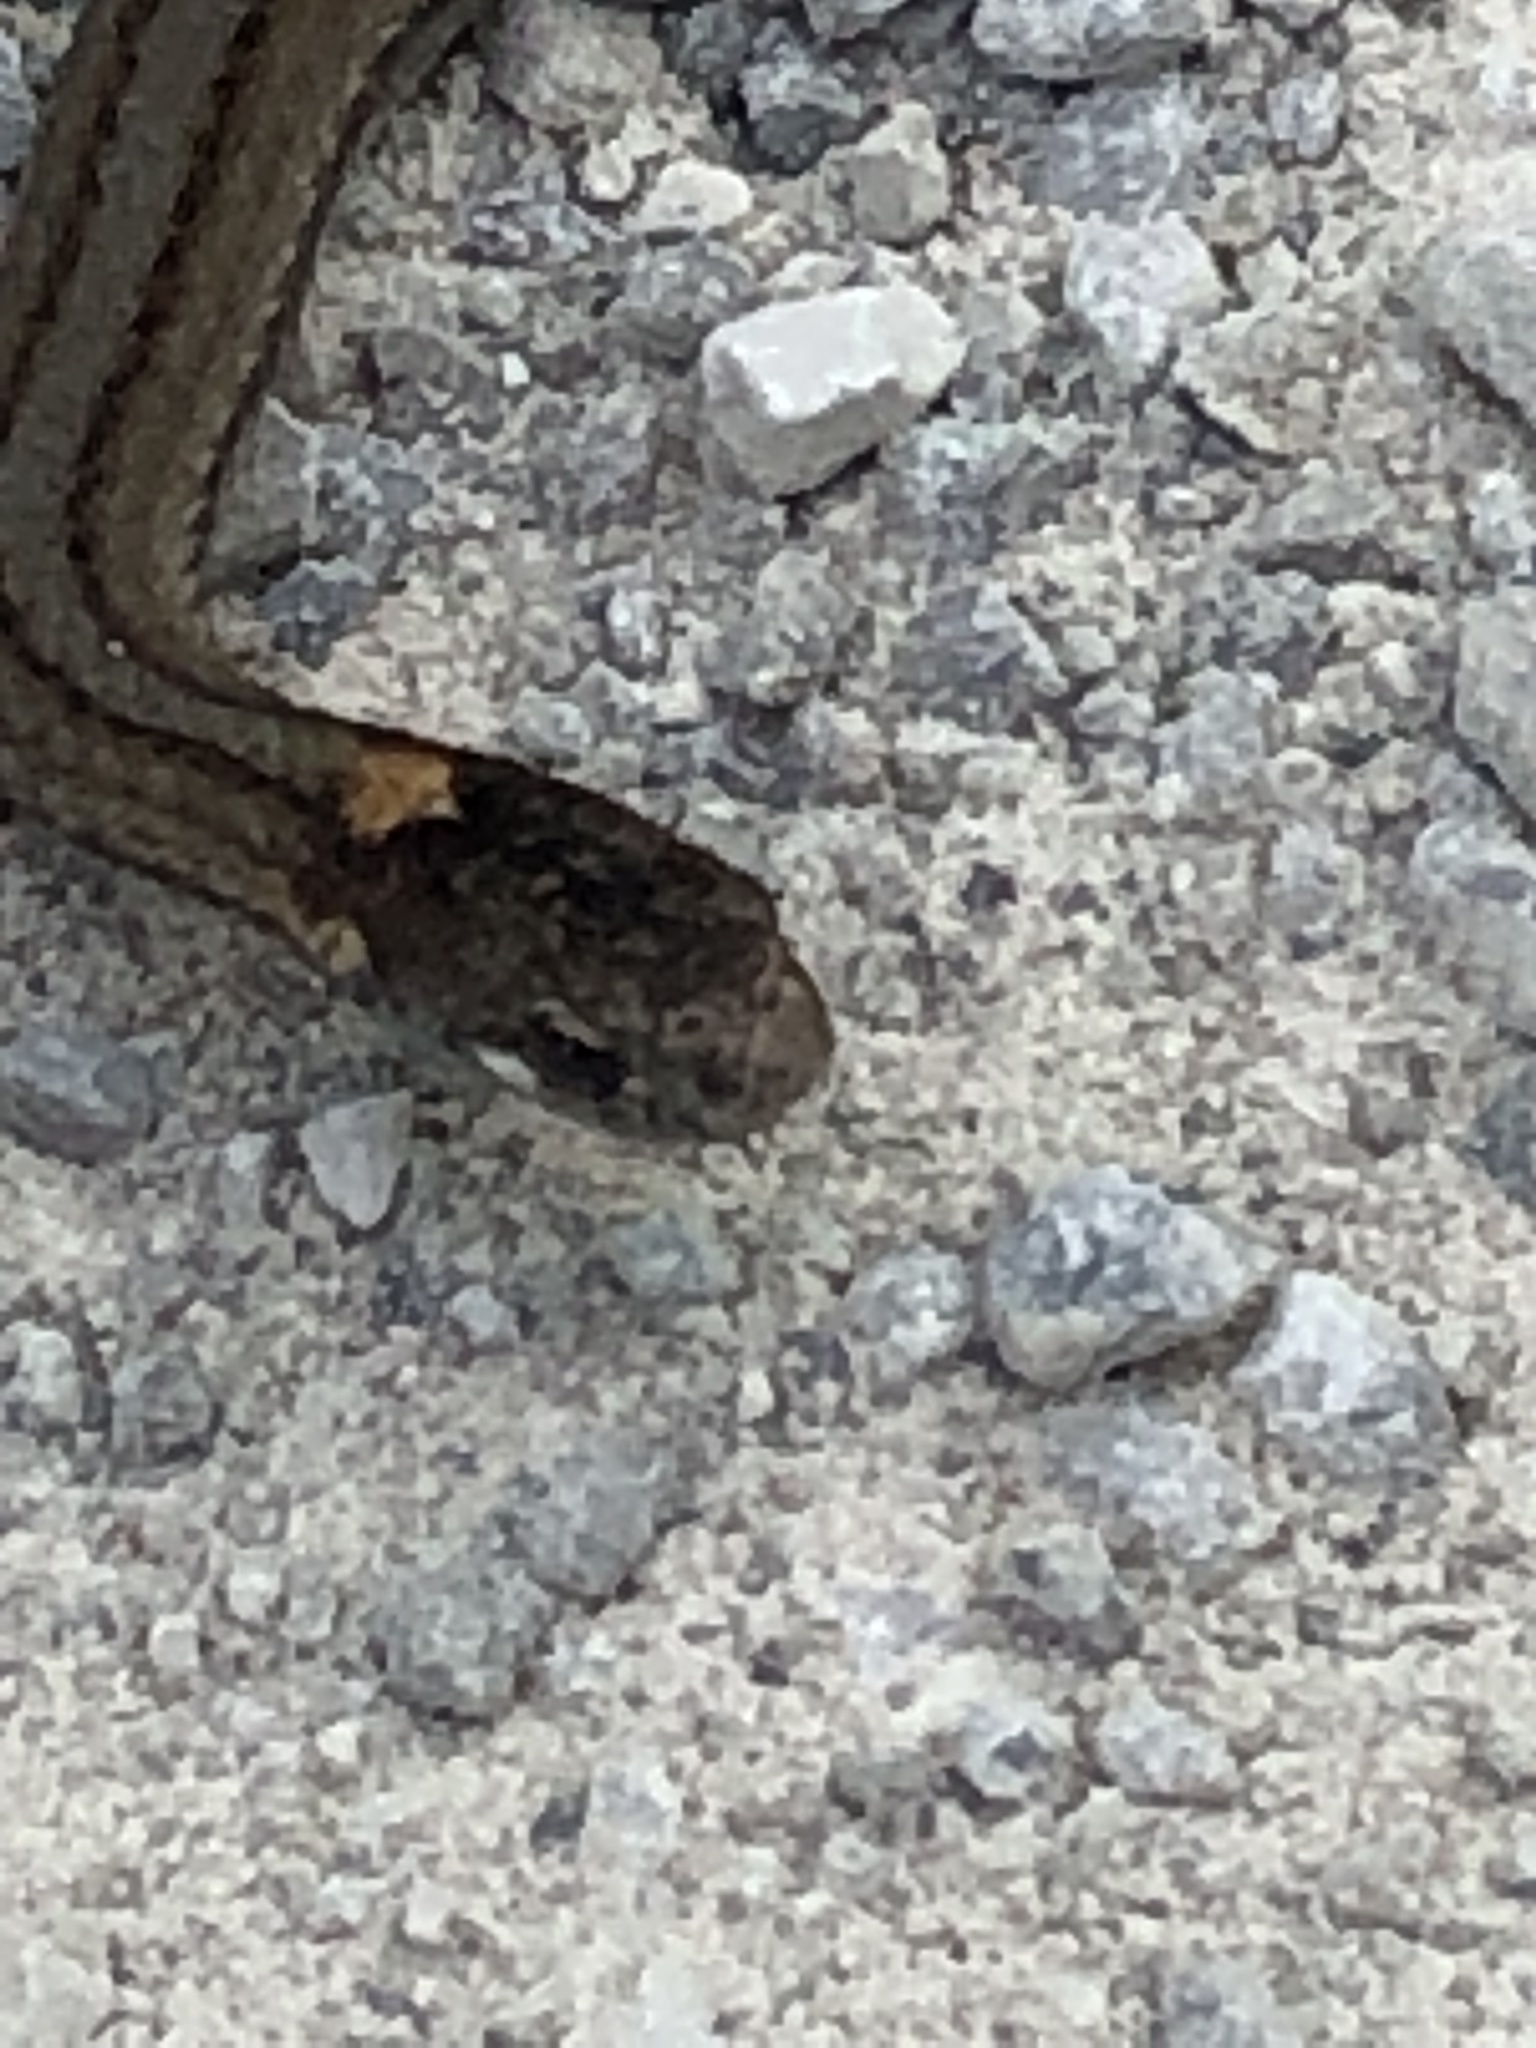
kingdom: Animalia
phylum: Chordata
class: Squamata
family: Colubridae
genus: Storeria
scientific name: Storeria occipitomaculata
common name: Redbelly snake
